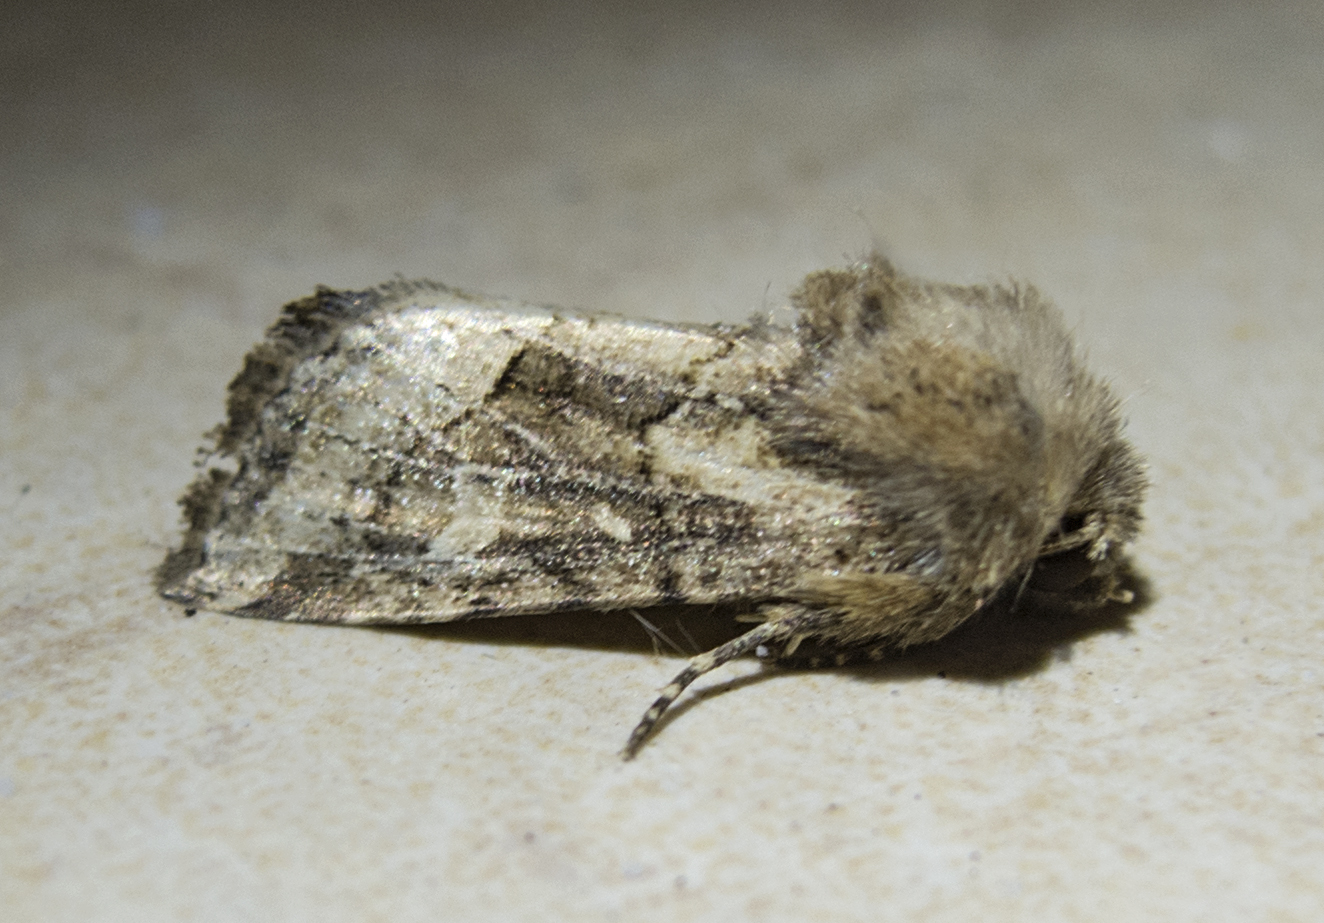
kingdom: Animalia
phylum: Arthropoda
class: Insecta
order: Lepidoptera
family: Noctuidae
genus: Luperina
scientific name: Luperina dumerilii
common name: Dumeril's rustic
